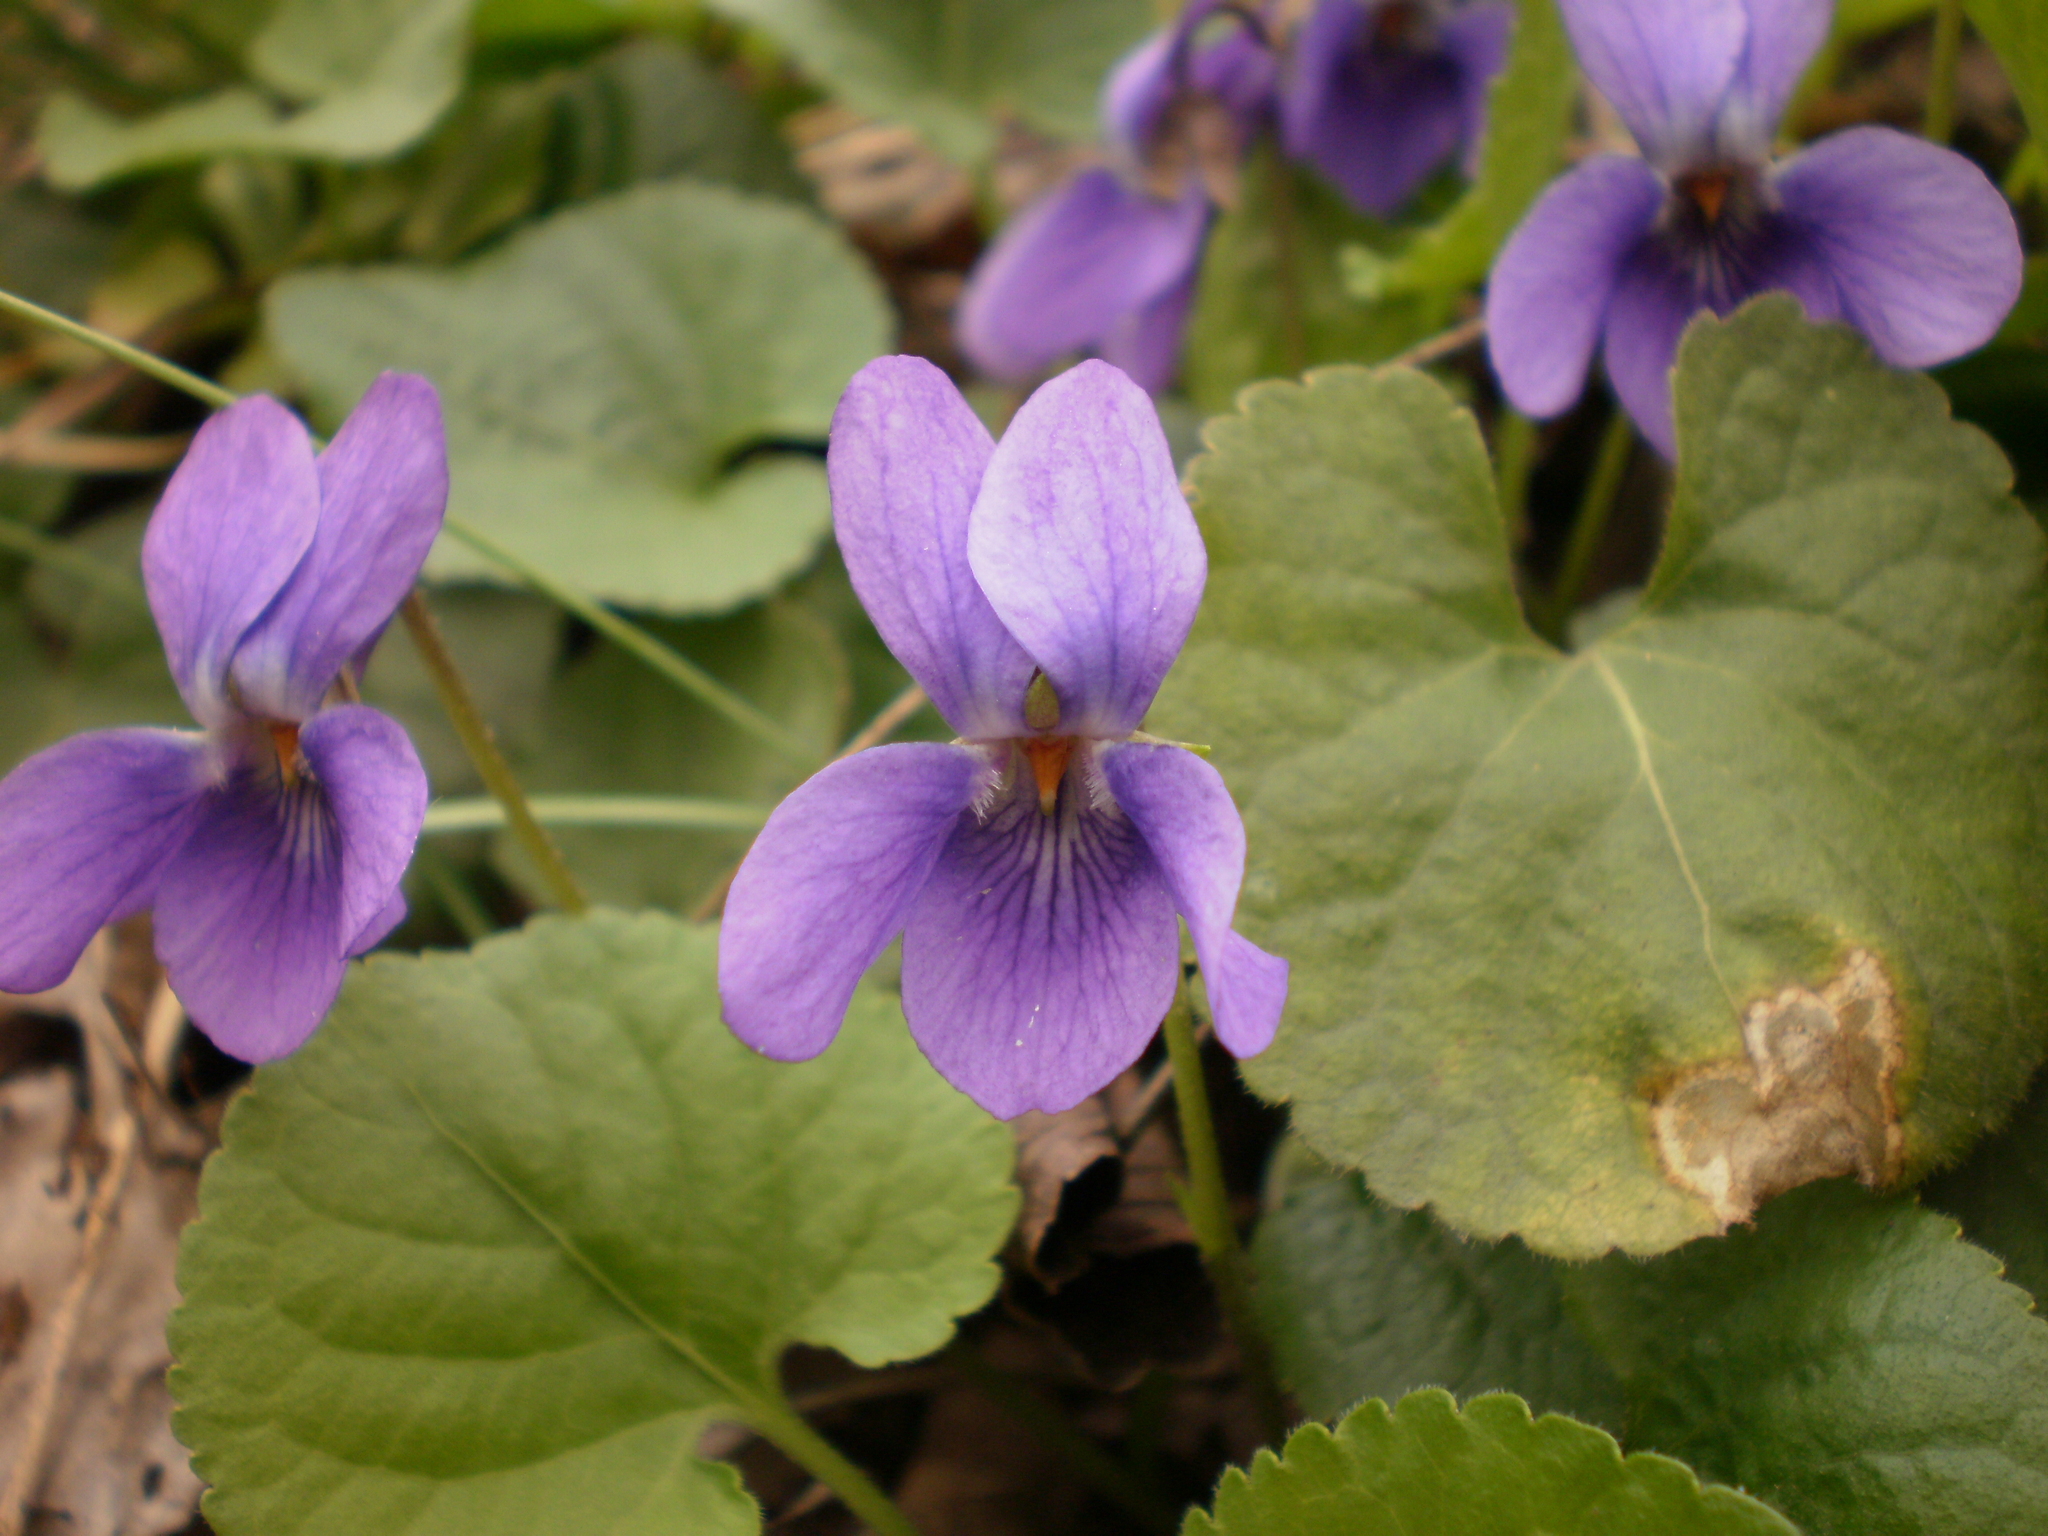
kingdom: Plantae
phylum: Tracheophyta
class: Magnoliopsida
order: Malpighiales
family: Violaceae
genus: Viola
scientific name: Viola odorata
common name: Sweet violet
